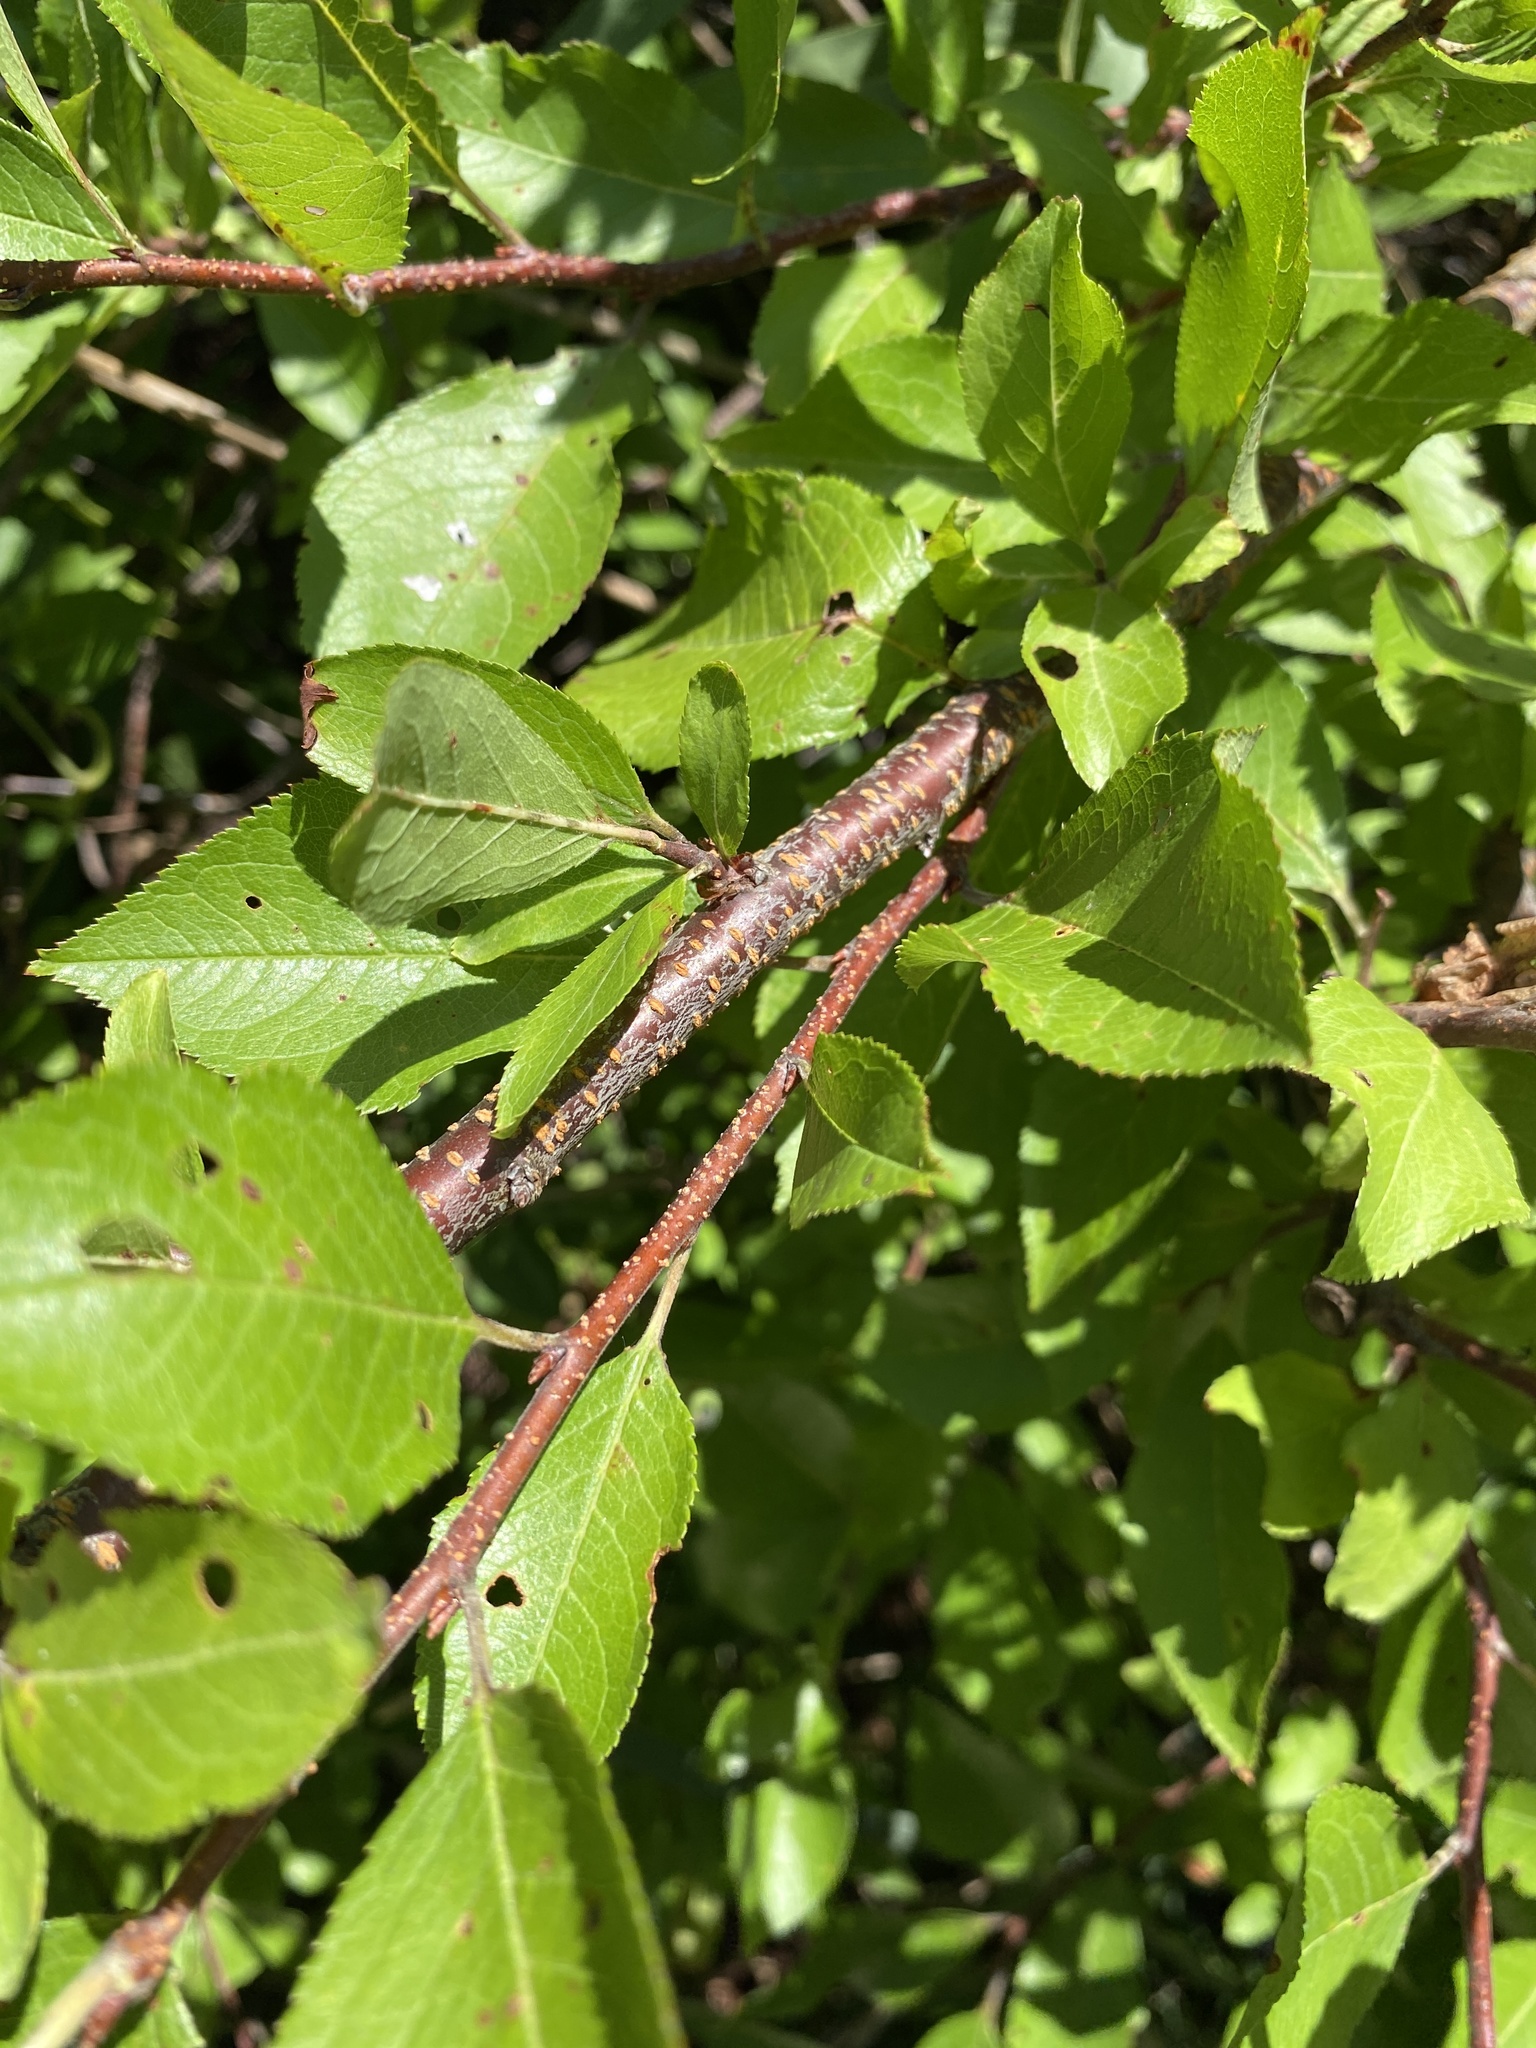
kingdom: Plantae
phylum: Tracheophyta
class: Magnoliopsida
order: Rosales
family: Rosaceae
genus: Prunus
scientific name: Prunus maritima
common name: Beach plum
